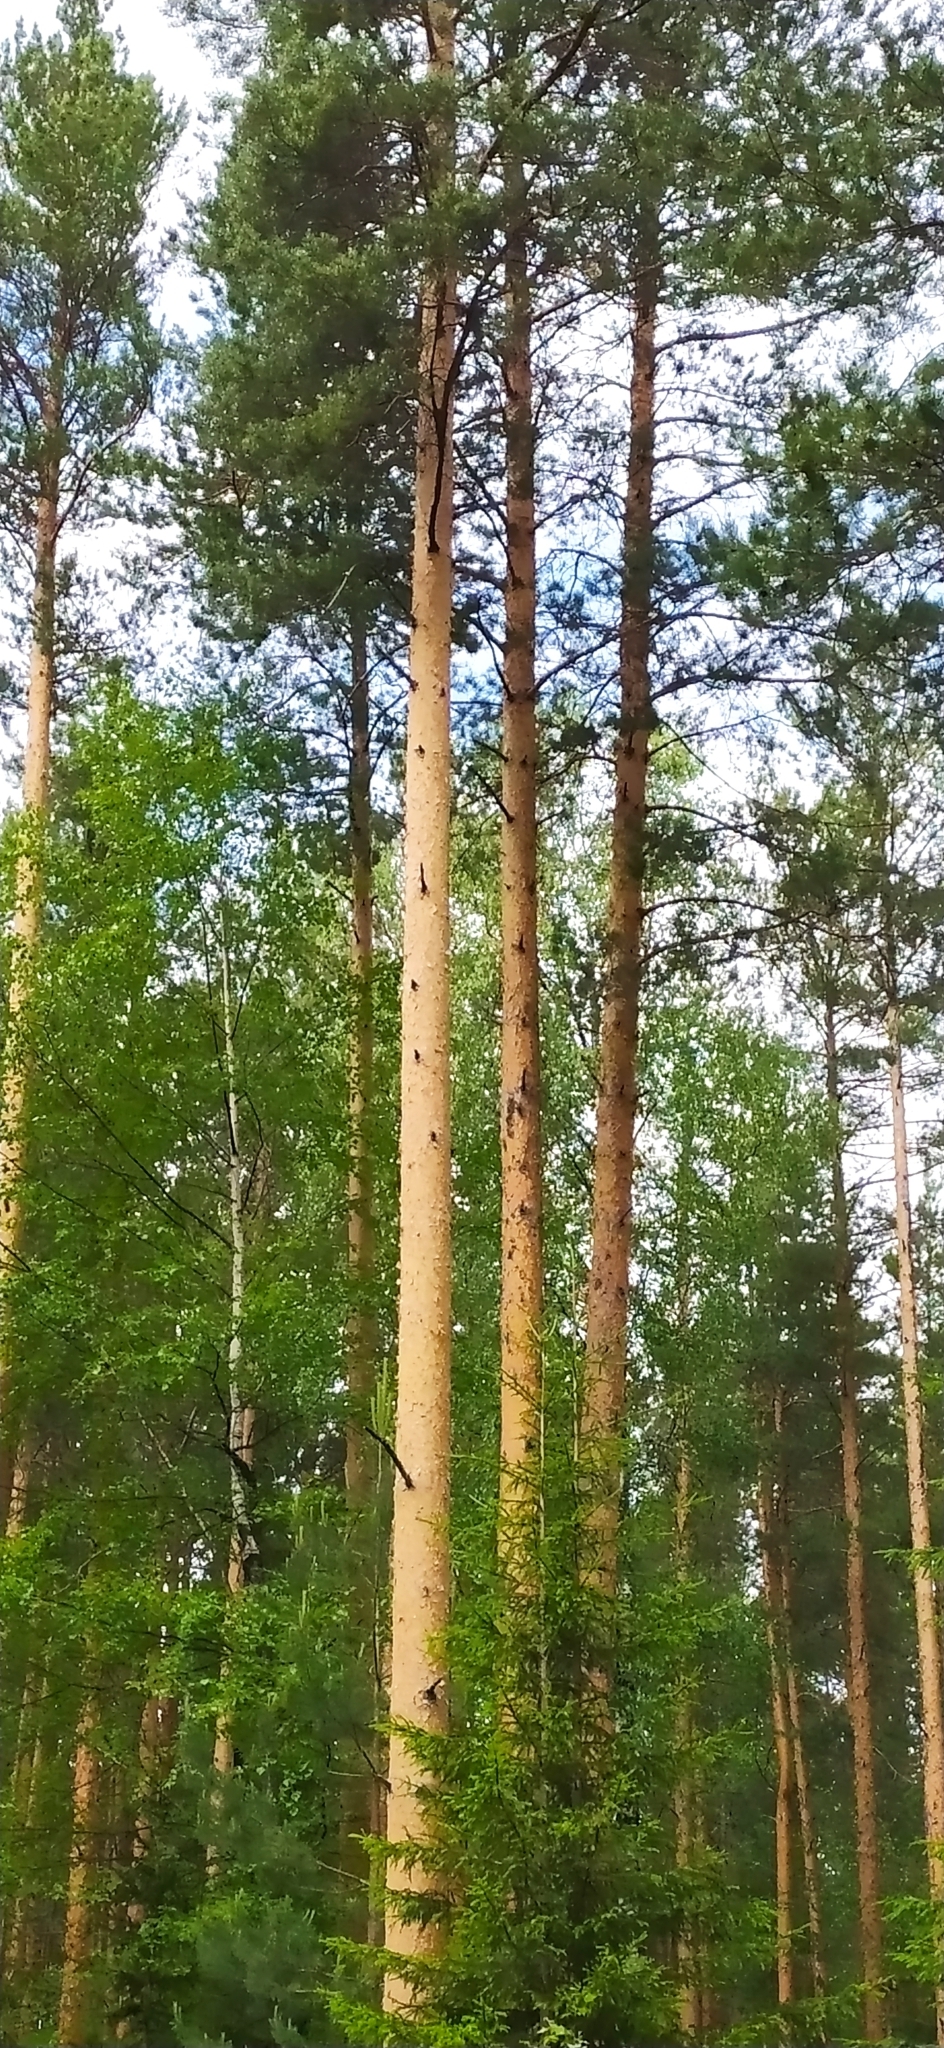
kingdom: Plantae
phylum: Tracheophyta
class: Pinopsida
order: Pinales
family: Pinaceae
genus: Pinus
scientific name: Pinus sylvestris
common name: Scots pine
